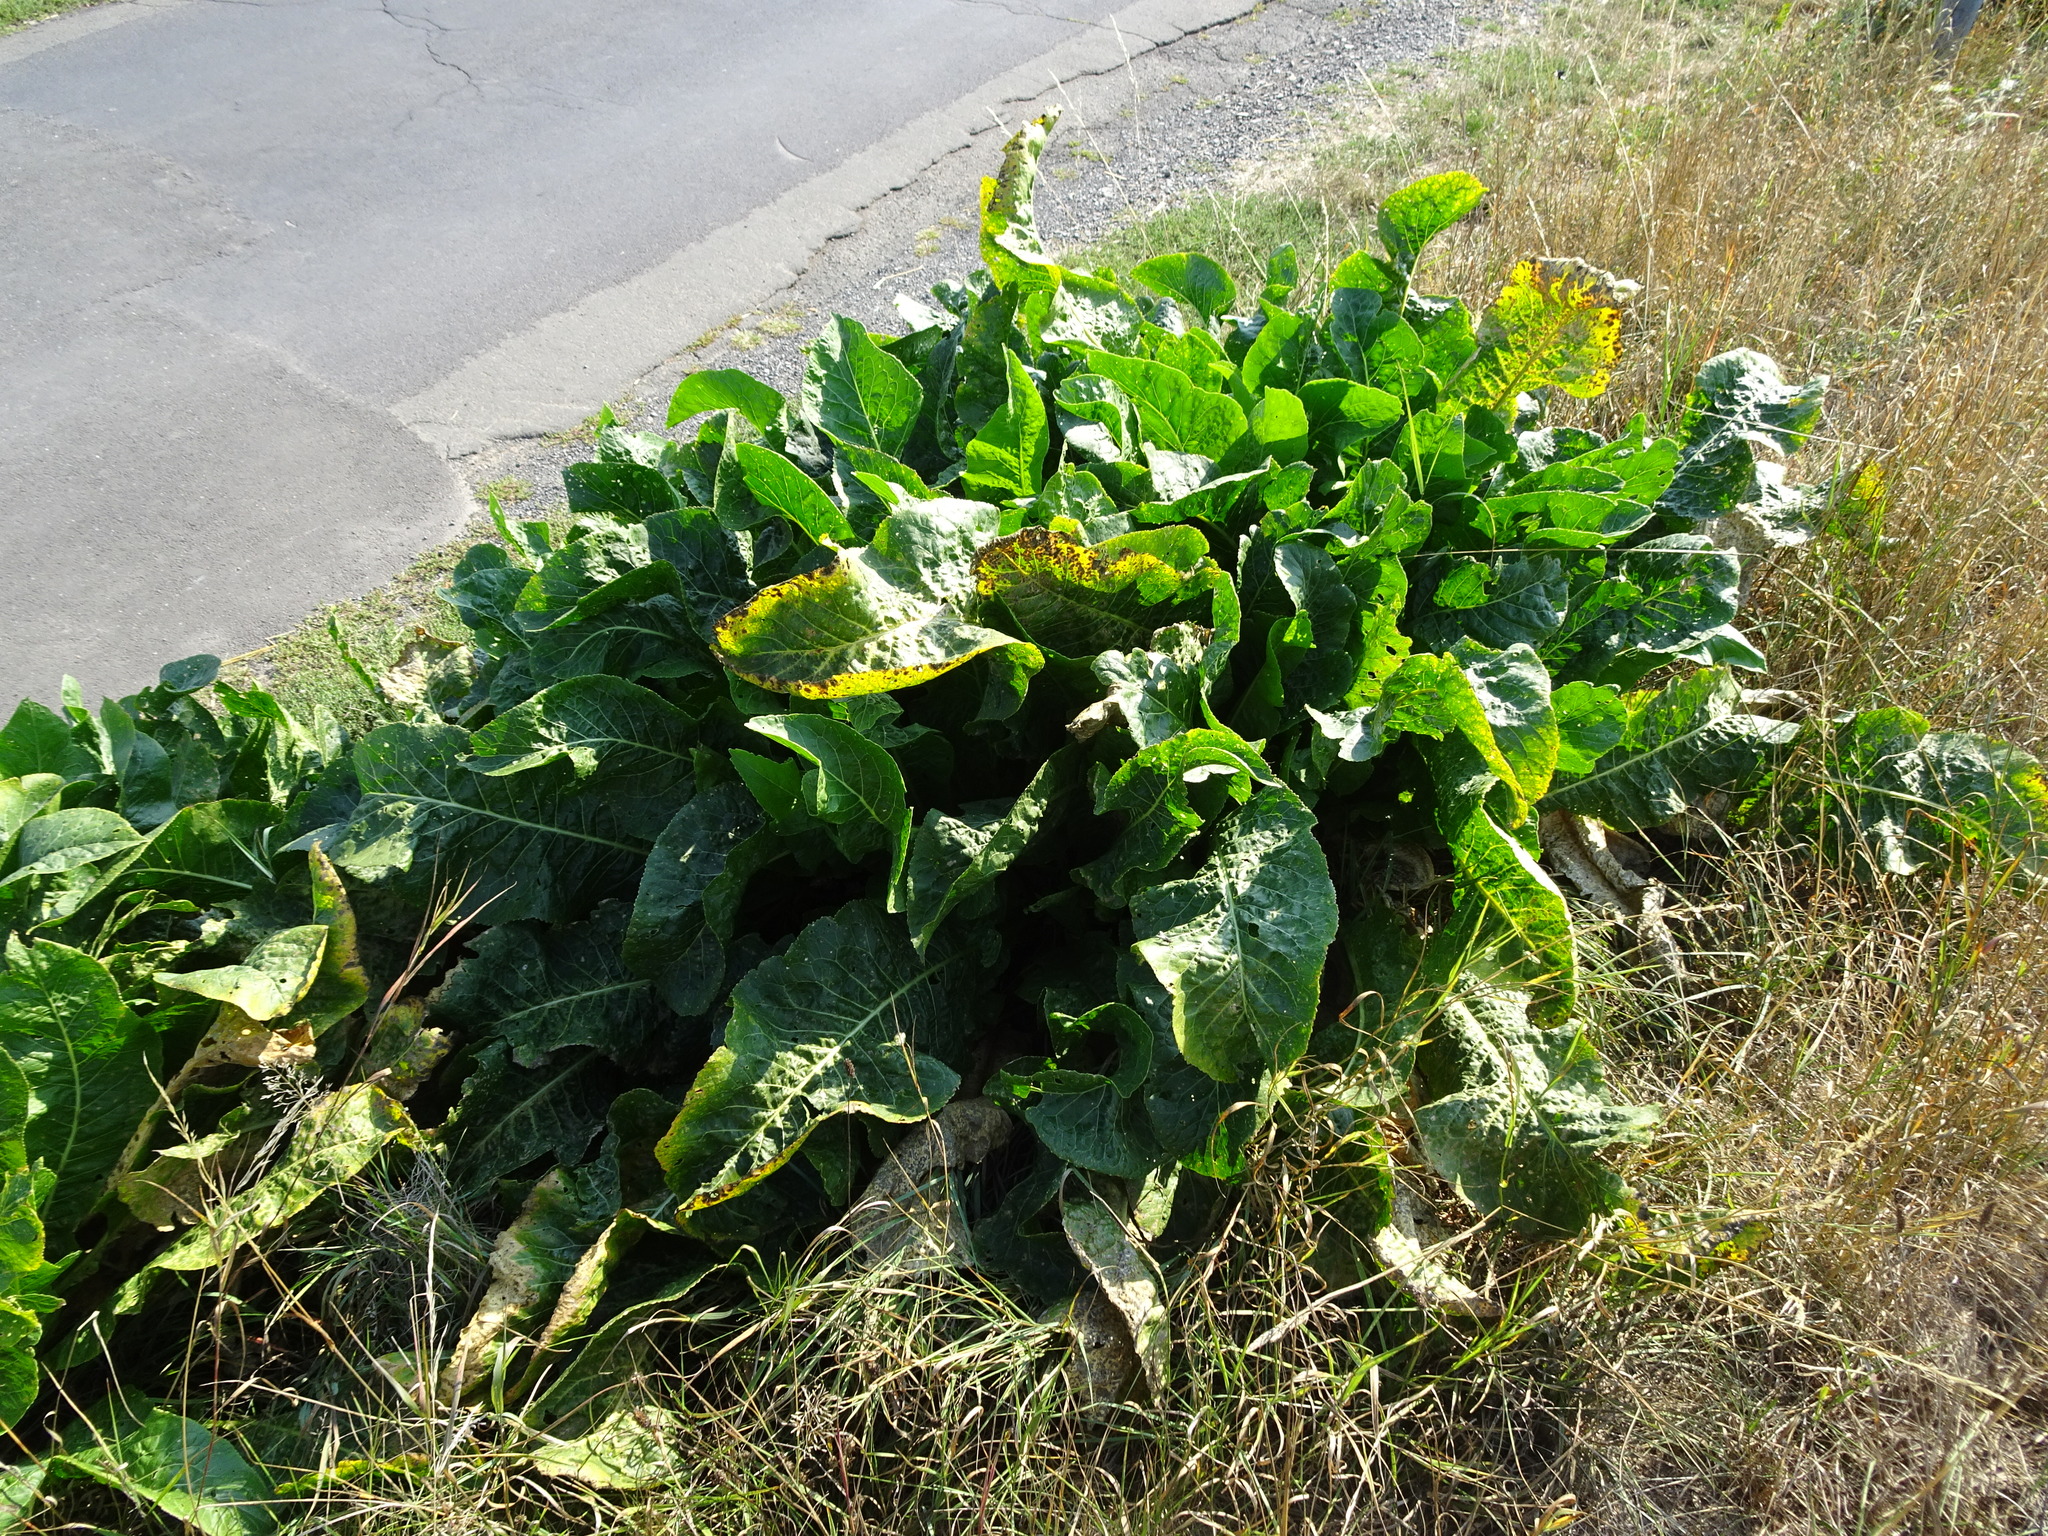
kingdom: Plantae
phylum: Tracheophyta
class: Magnoliopsida
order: Brassicales
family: Brassicaceae
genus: Armoracia
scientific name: Armoracia rusticana
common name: Horseradish
